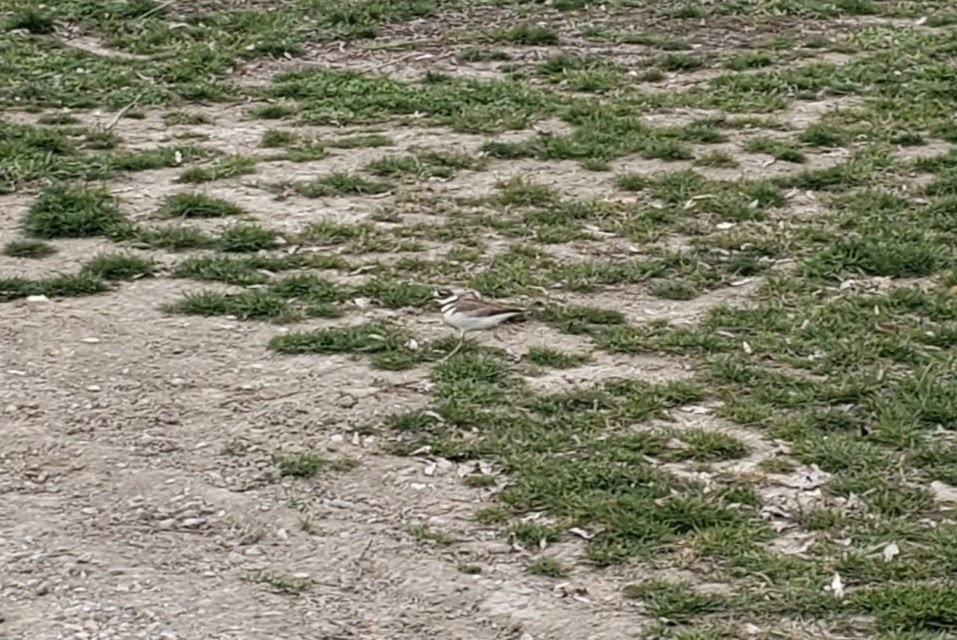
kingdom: Animalia
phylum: Chordata
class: Aves
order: Charadriiformes
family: Charadriidae
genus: Charadrius
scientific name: Charadrius vociferus
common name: Killdeer
